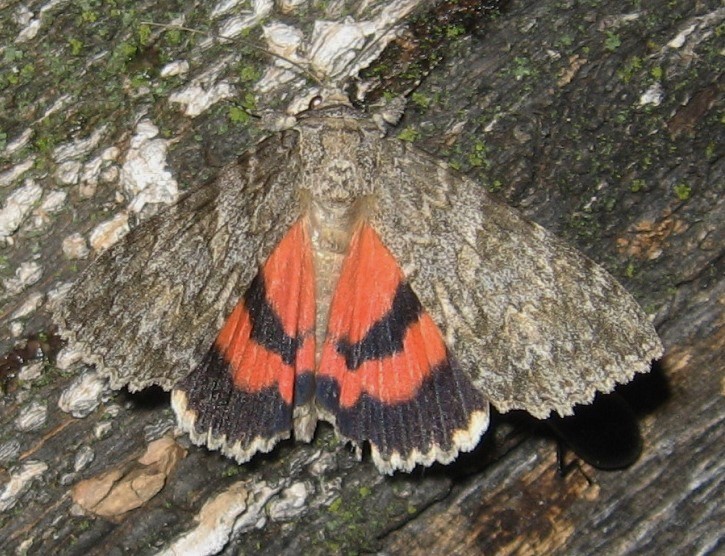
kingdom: Animalia
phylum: Arthropoda
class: Insecta
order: Lepidoptera
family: Erebidae
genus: Catocala
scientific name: Catocala meskei
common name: Meske's underwing moth
